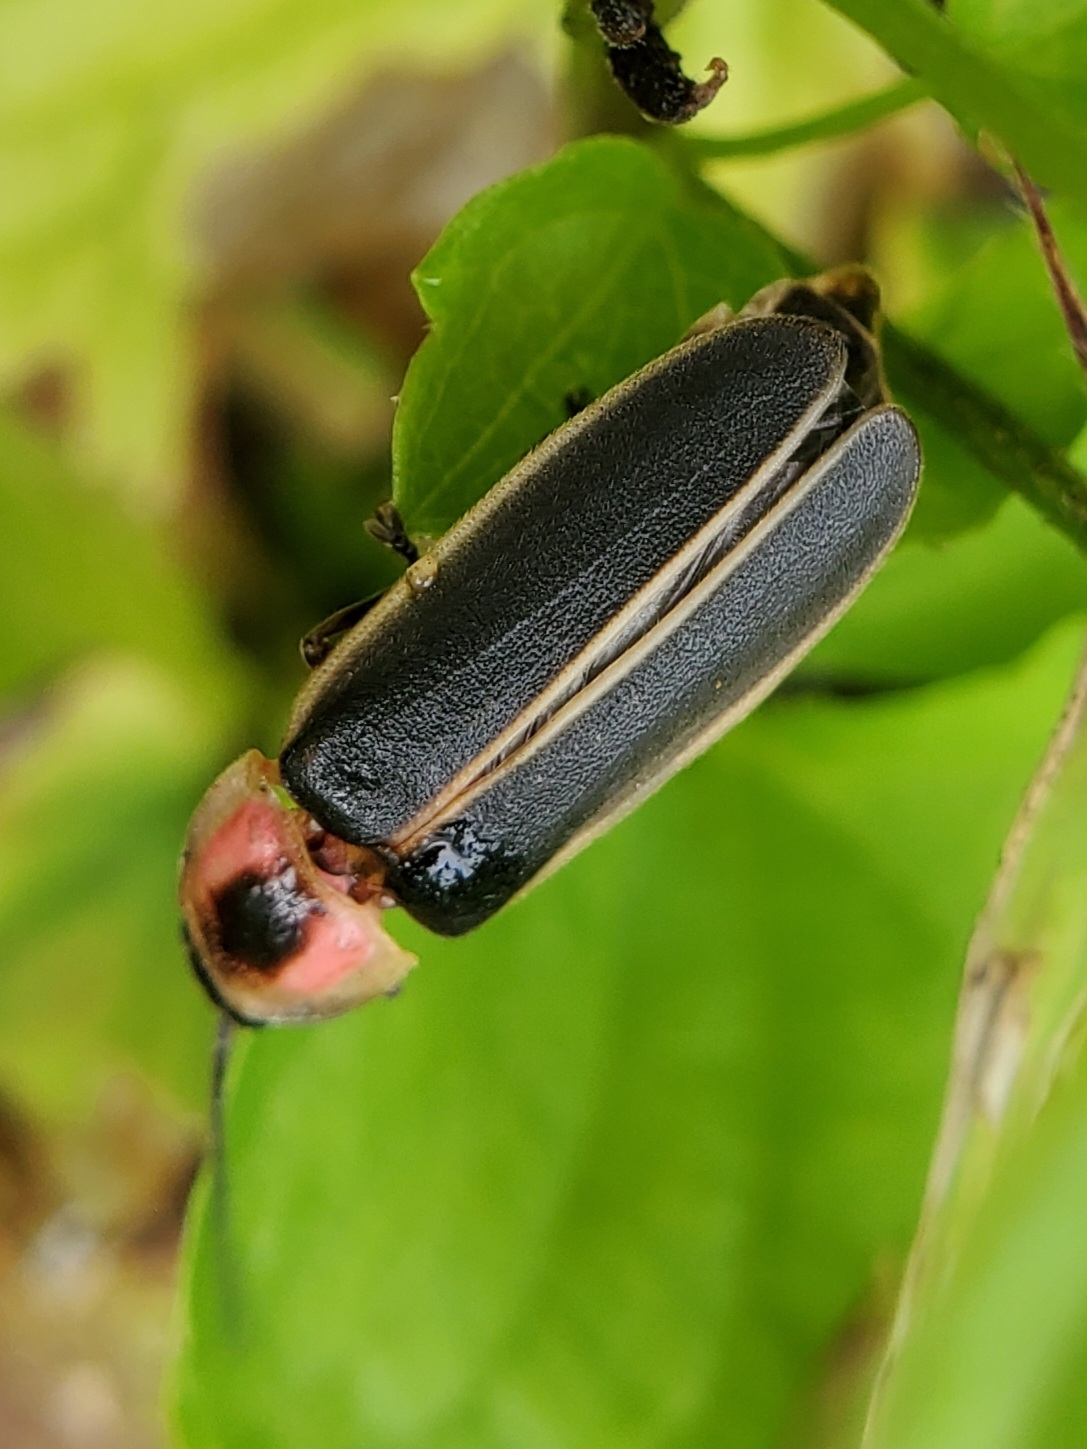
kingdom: Animalia
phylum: Arthropoda
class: Insecta
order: Coleoptera
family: Lampyridae
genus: Photinus
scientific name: Photinus pyralis
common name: Big dipper firefly
